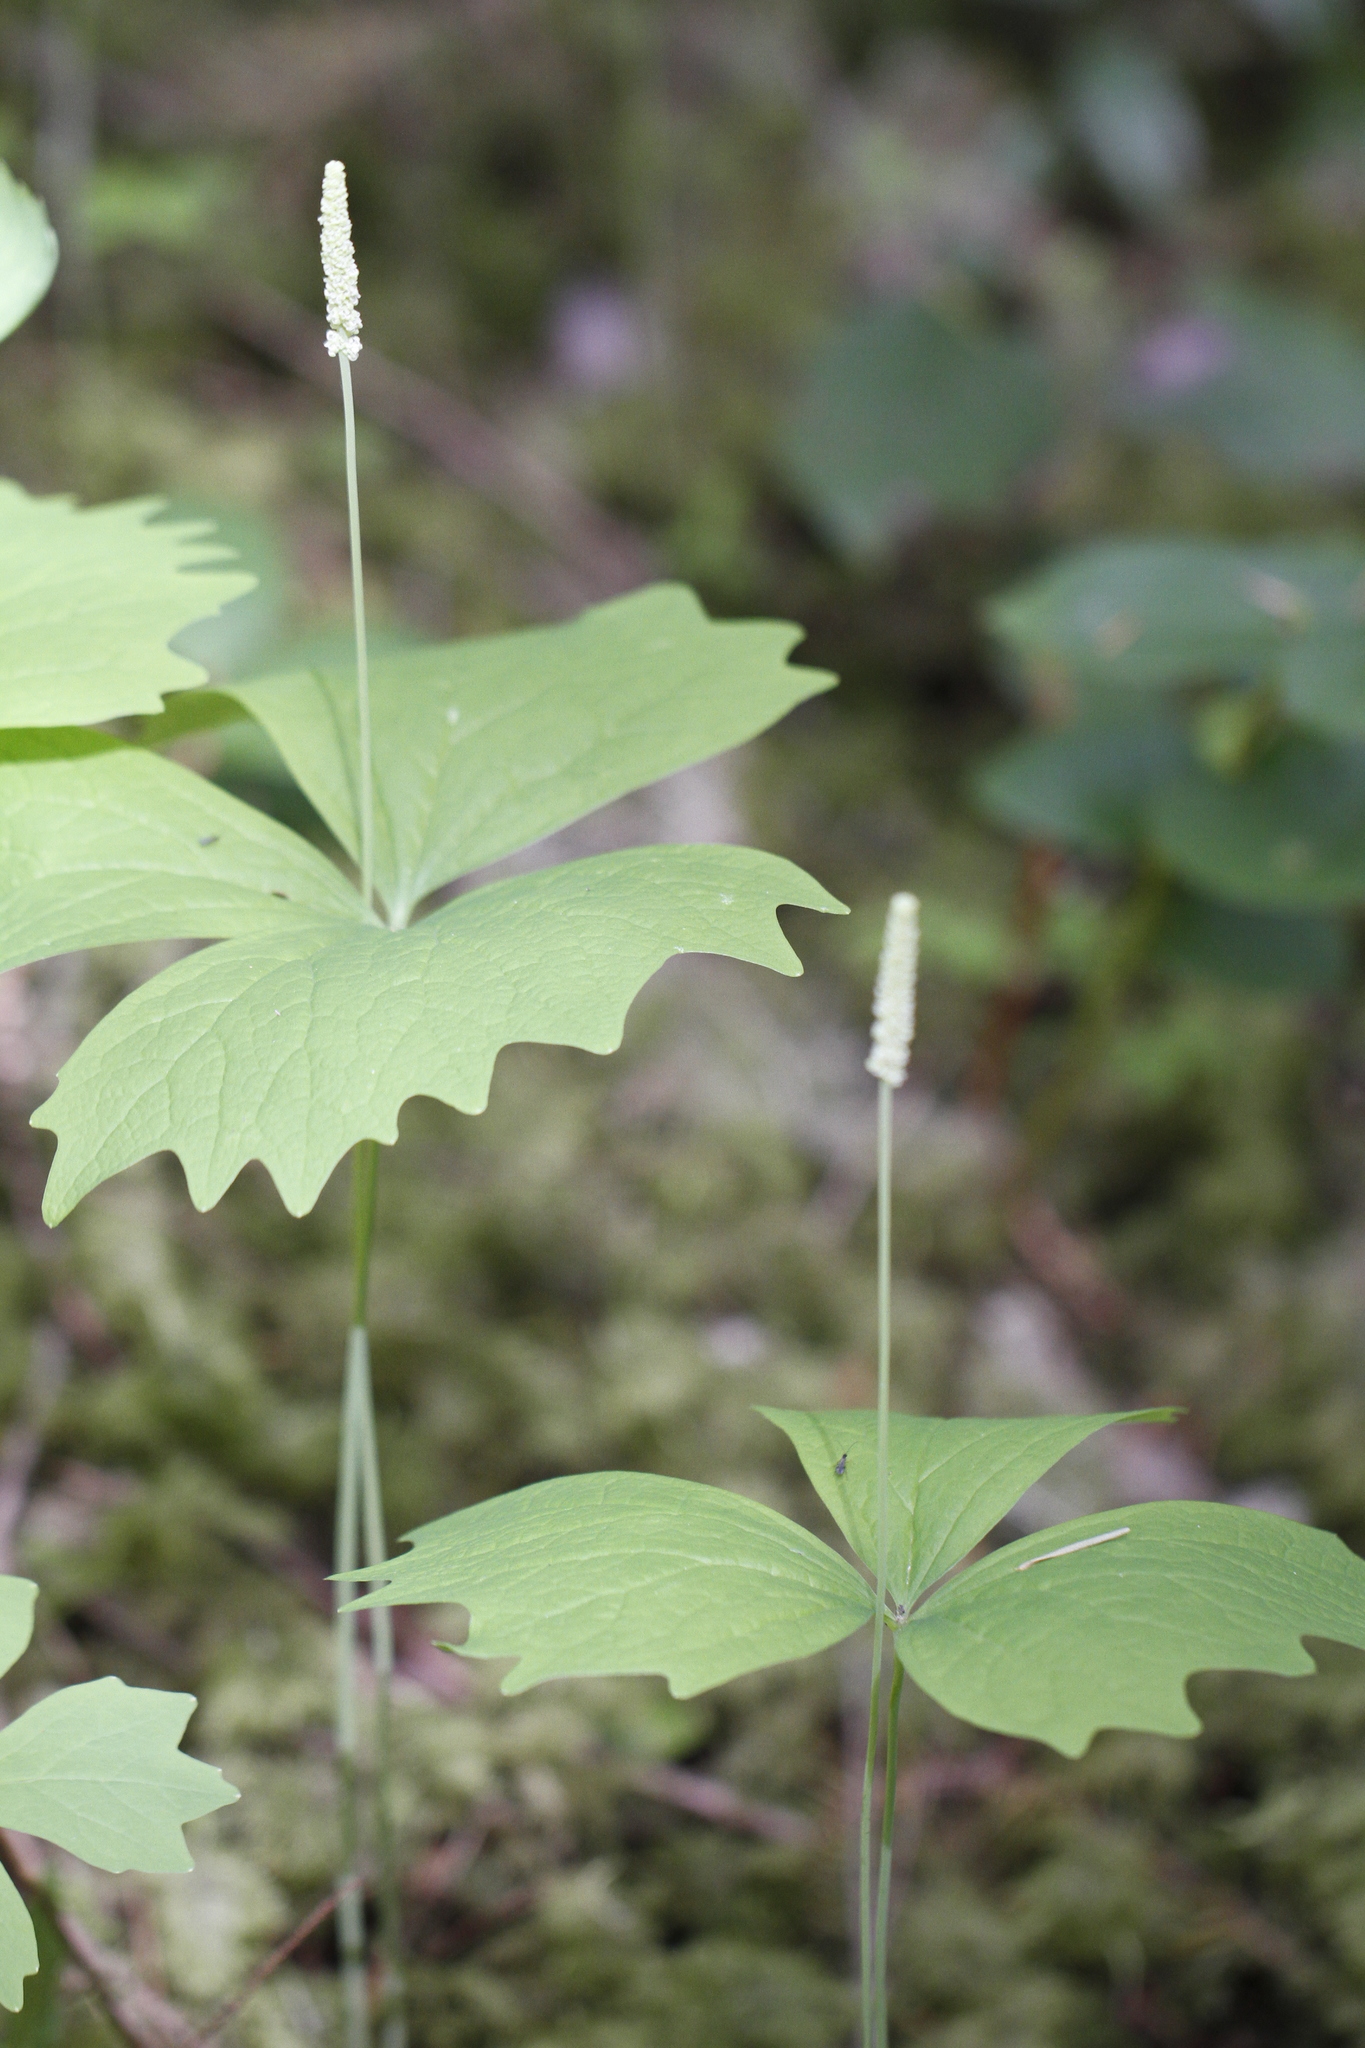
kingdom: Plantae
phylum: Tracheophyta
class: Magnoliopsida
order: Ranunculales
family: Berberidaceae
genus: Achlys
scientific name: Achlys triphylla
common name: Vanilla-leaf
